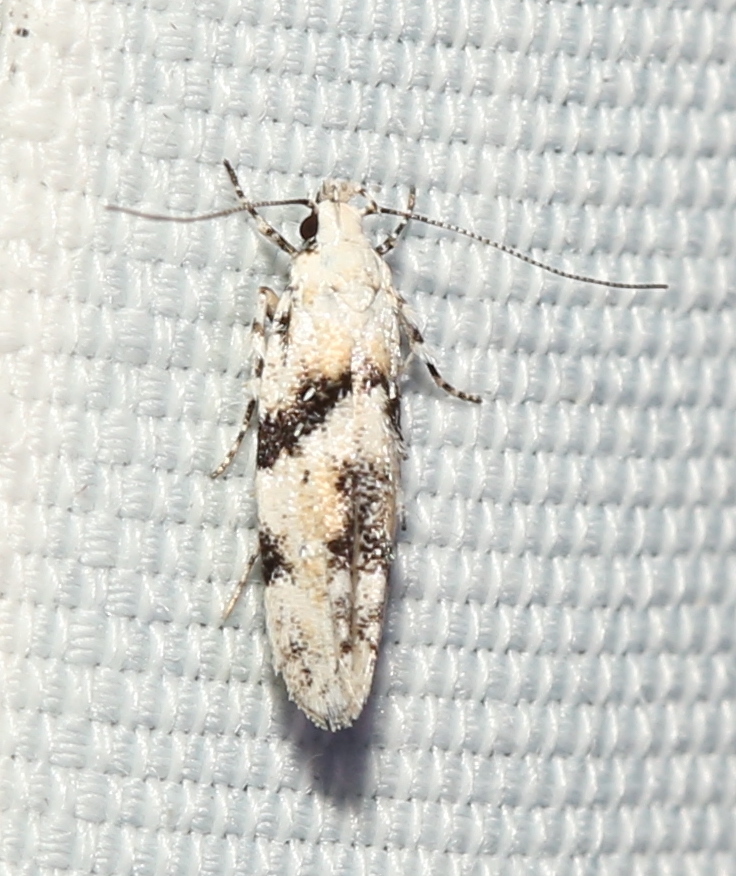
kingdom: Animalia
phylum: Arthropoda
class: Insecta
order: Lepidoptera
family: Gelechiidae
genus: Arogalea
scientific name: Arogalea cristifasciella
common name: White stripe-backed moth
